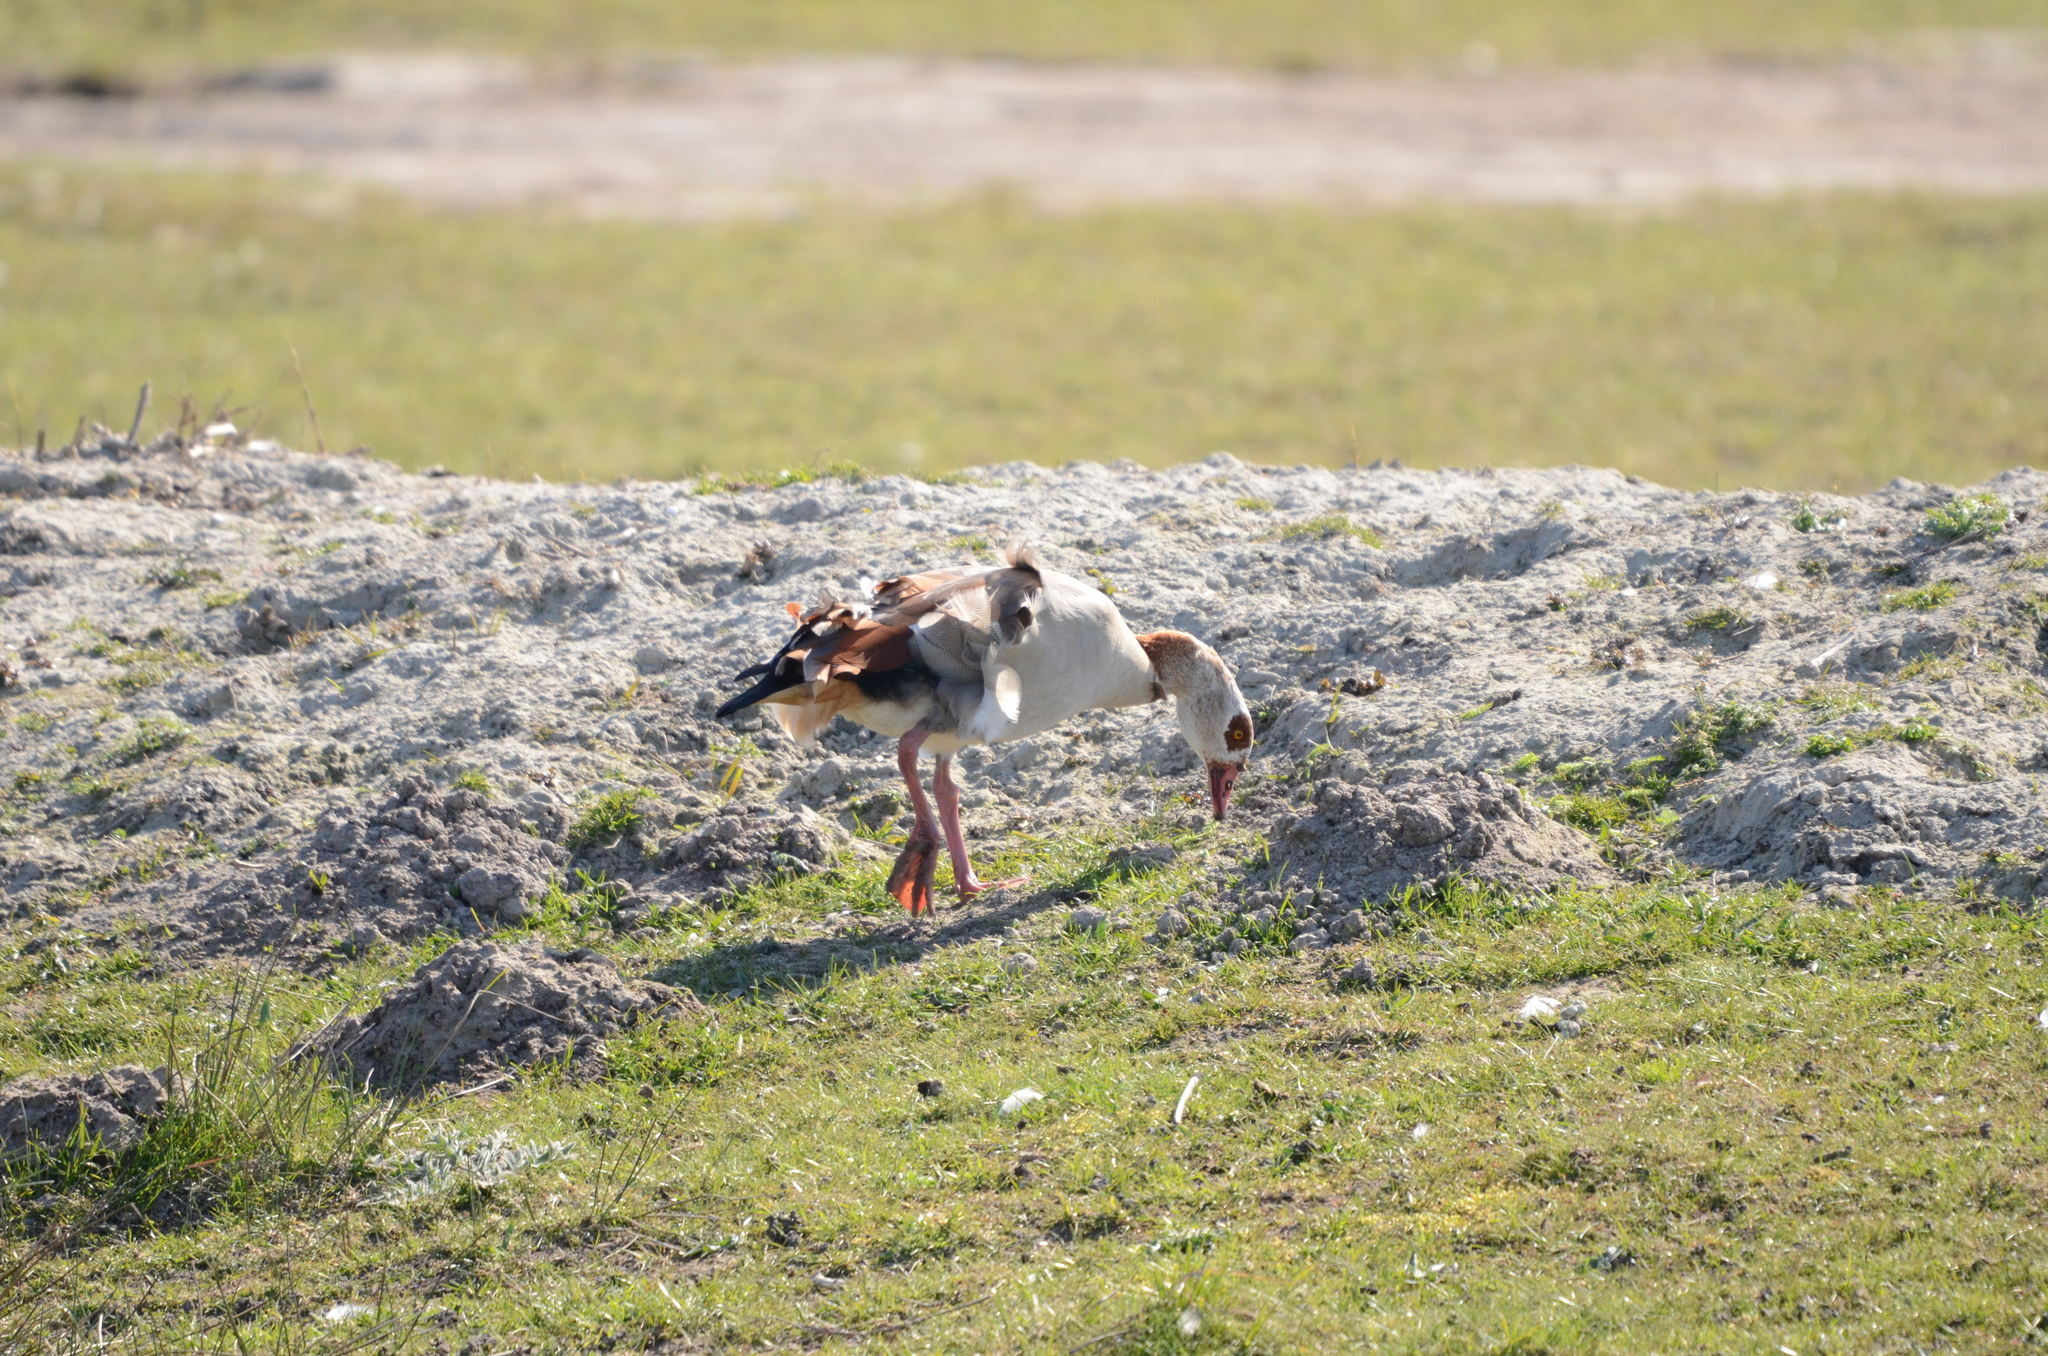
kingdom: Animalia
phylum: Chordata
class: Aves
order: Anseriformes
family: Anatidae
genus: Alopochen
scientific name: Alopochen aegyptiaca
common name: Egyptian goose
